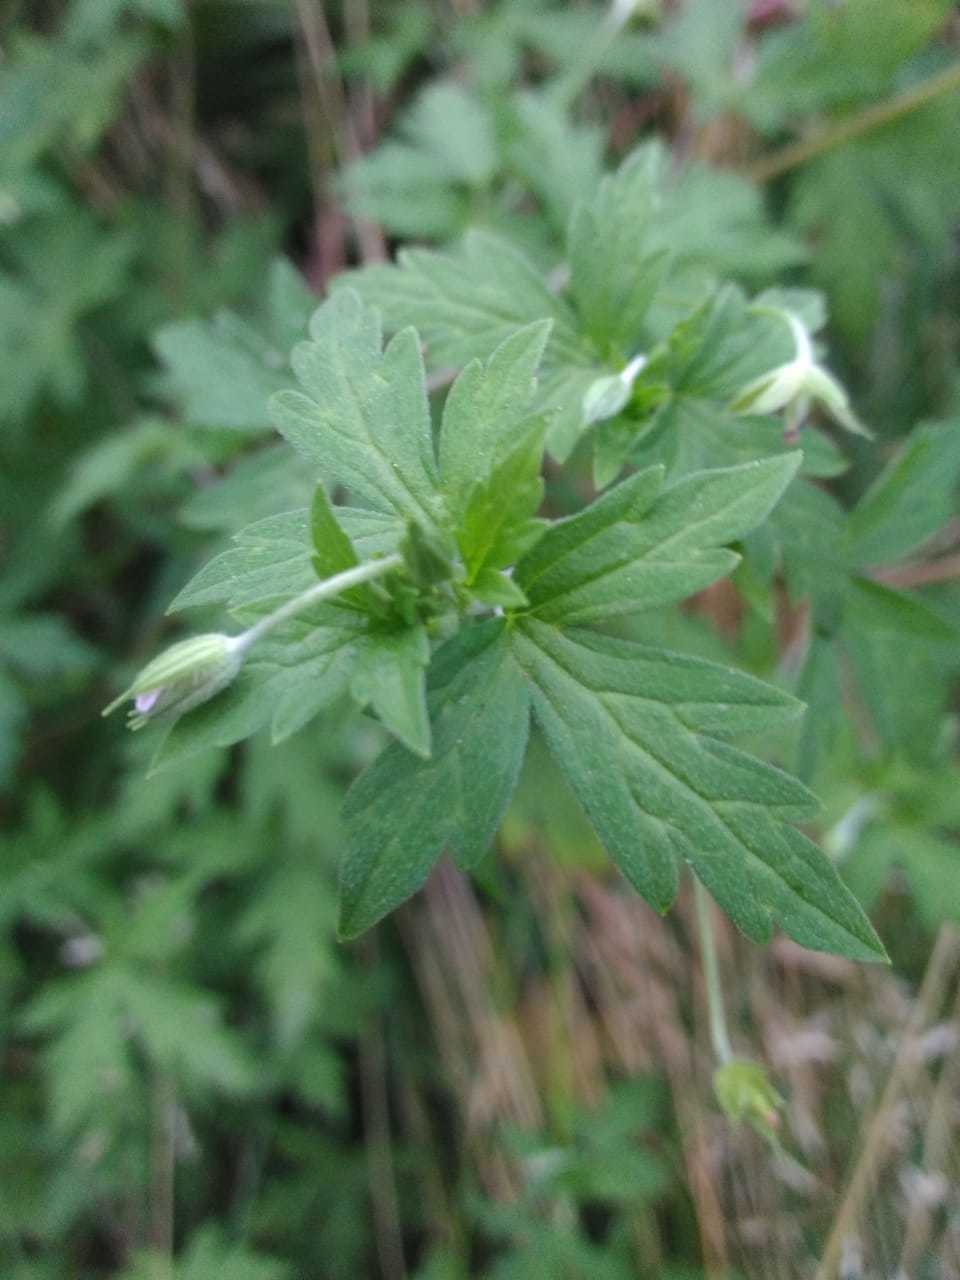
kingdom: Plantae
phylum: Tracheophyta
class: Magnoliopsida
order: Geraniales
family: Geraniaceae
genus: Geranium
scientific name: Geranium sibiricum
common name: Siberian crane's-bill
